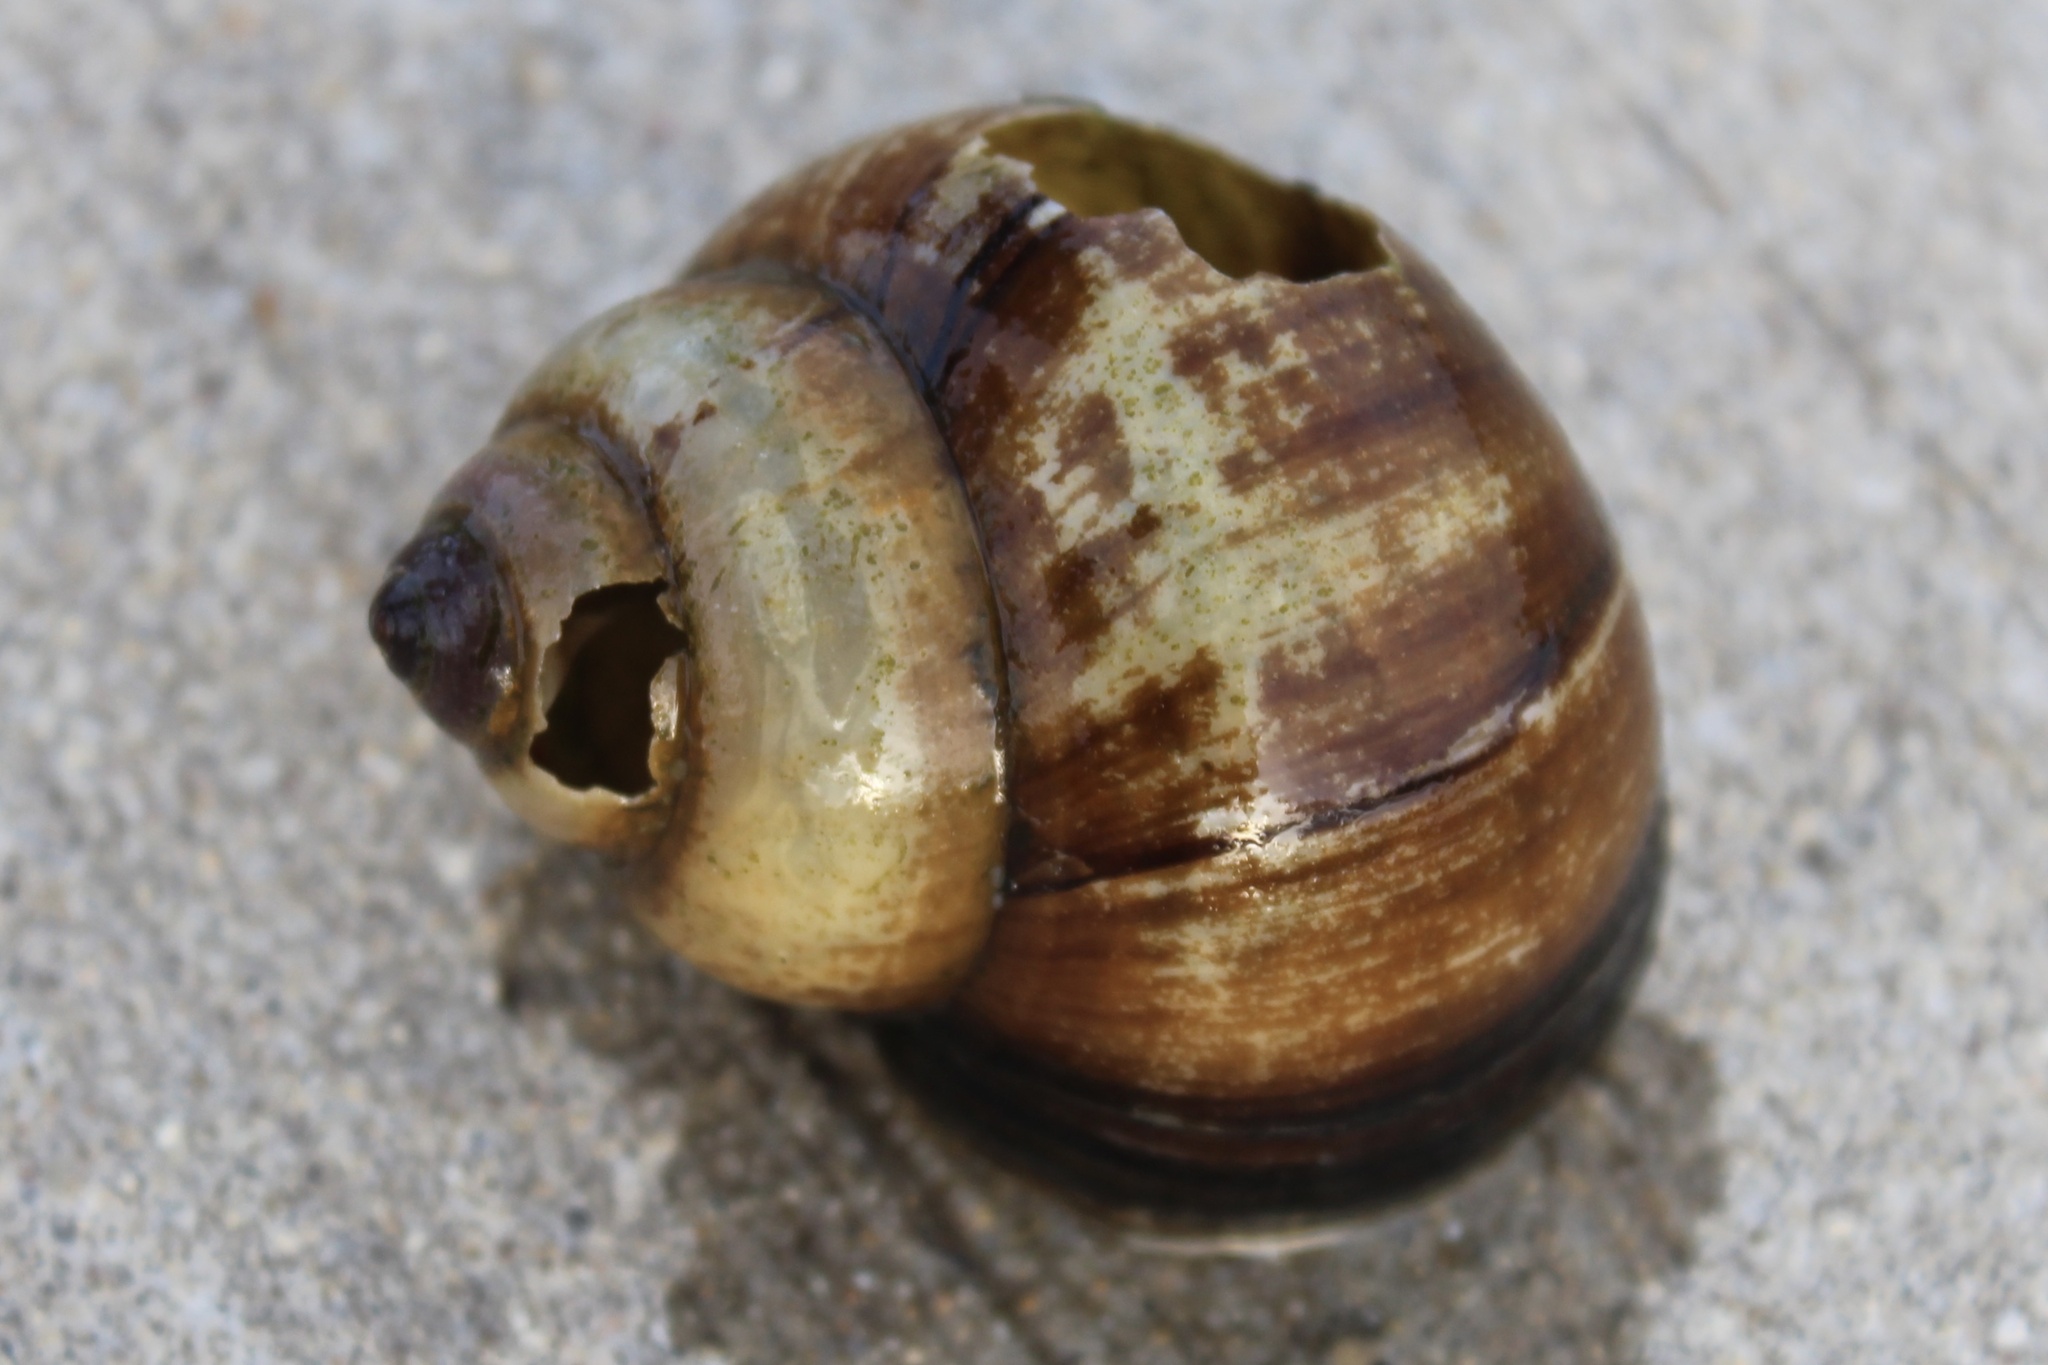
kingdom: Animalia
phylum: Mollusca
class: Gastropoda
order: Architaenioglossa
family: Viviparidae
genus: Cipangopaludina
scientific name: Cipangopaludina chinensis
